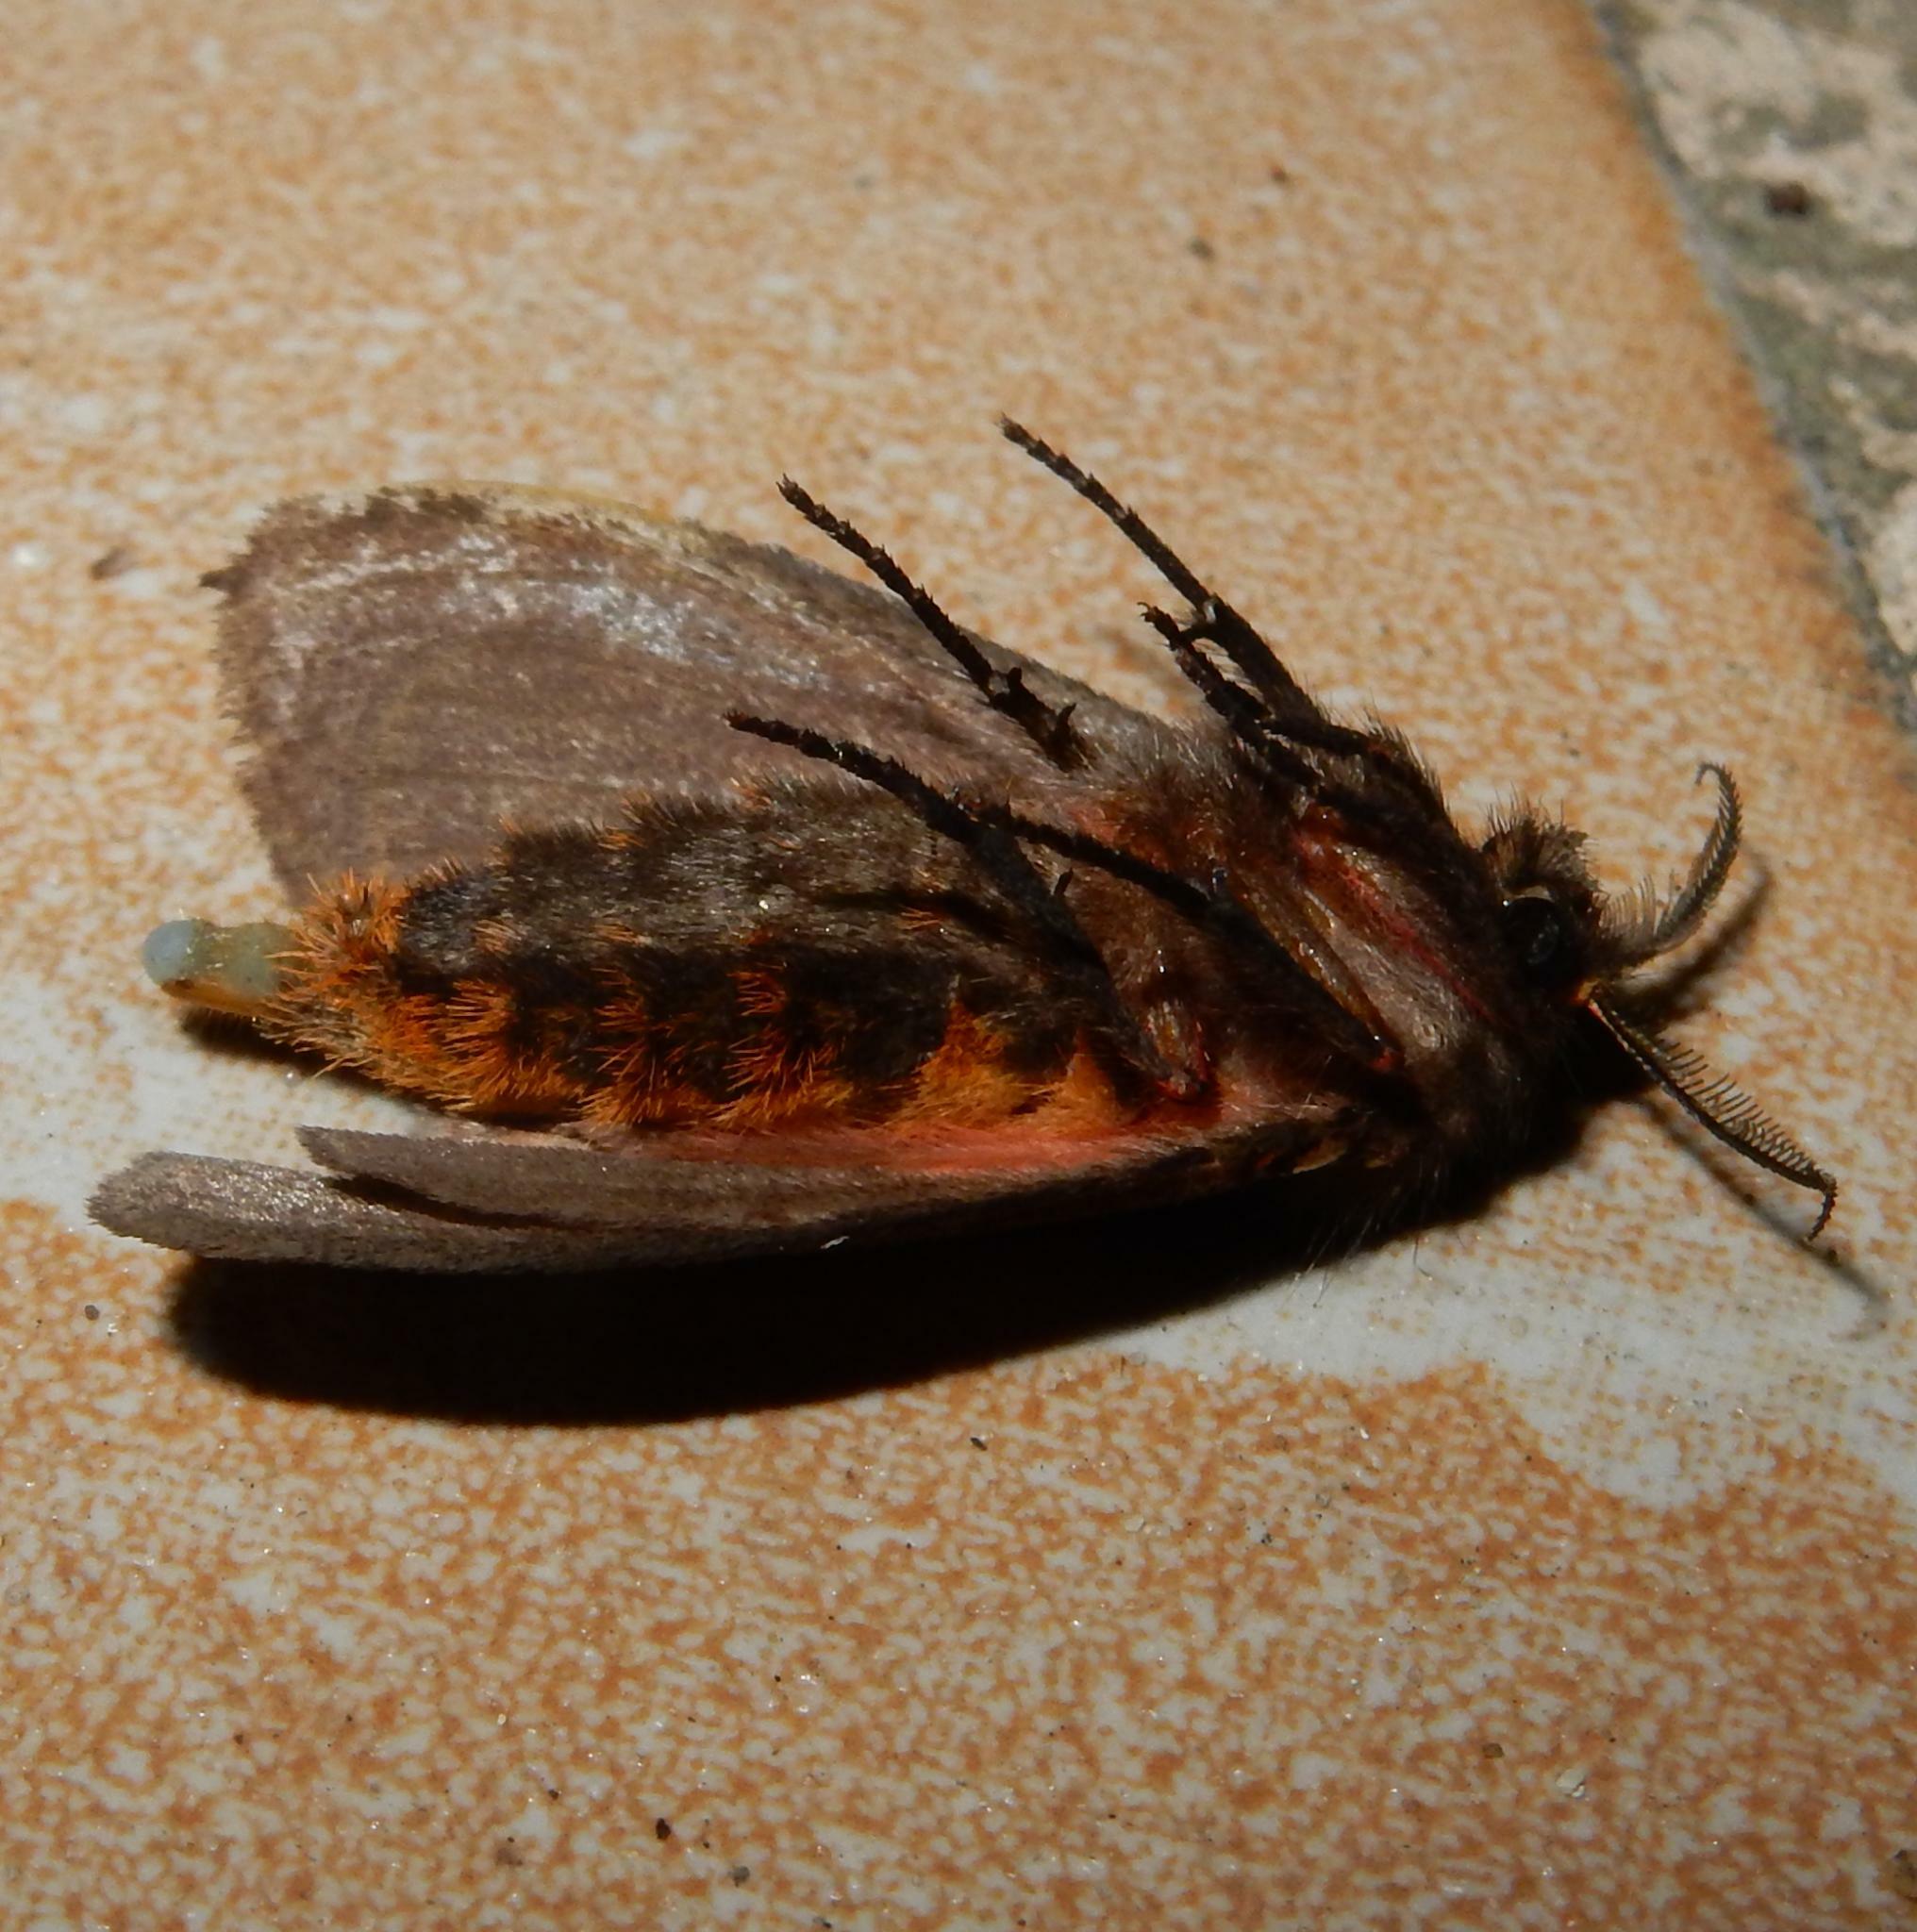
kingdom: Animalia
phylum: Arthropoda
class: Insecta
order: Lepidoptera
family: Erebidae
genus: Lymantria
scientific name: Lymantria Morasa modesta
